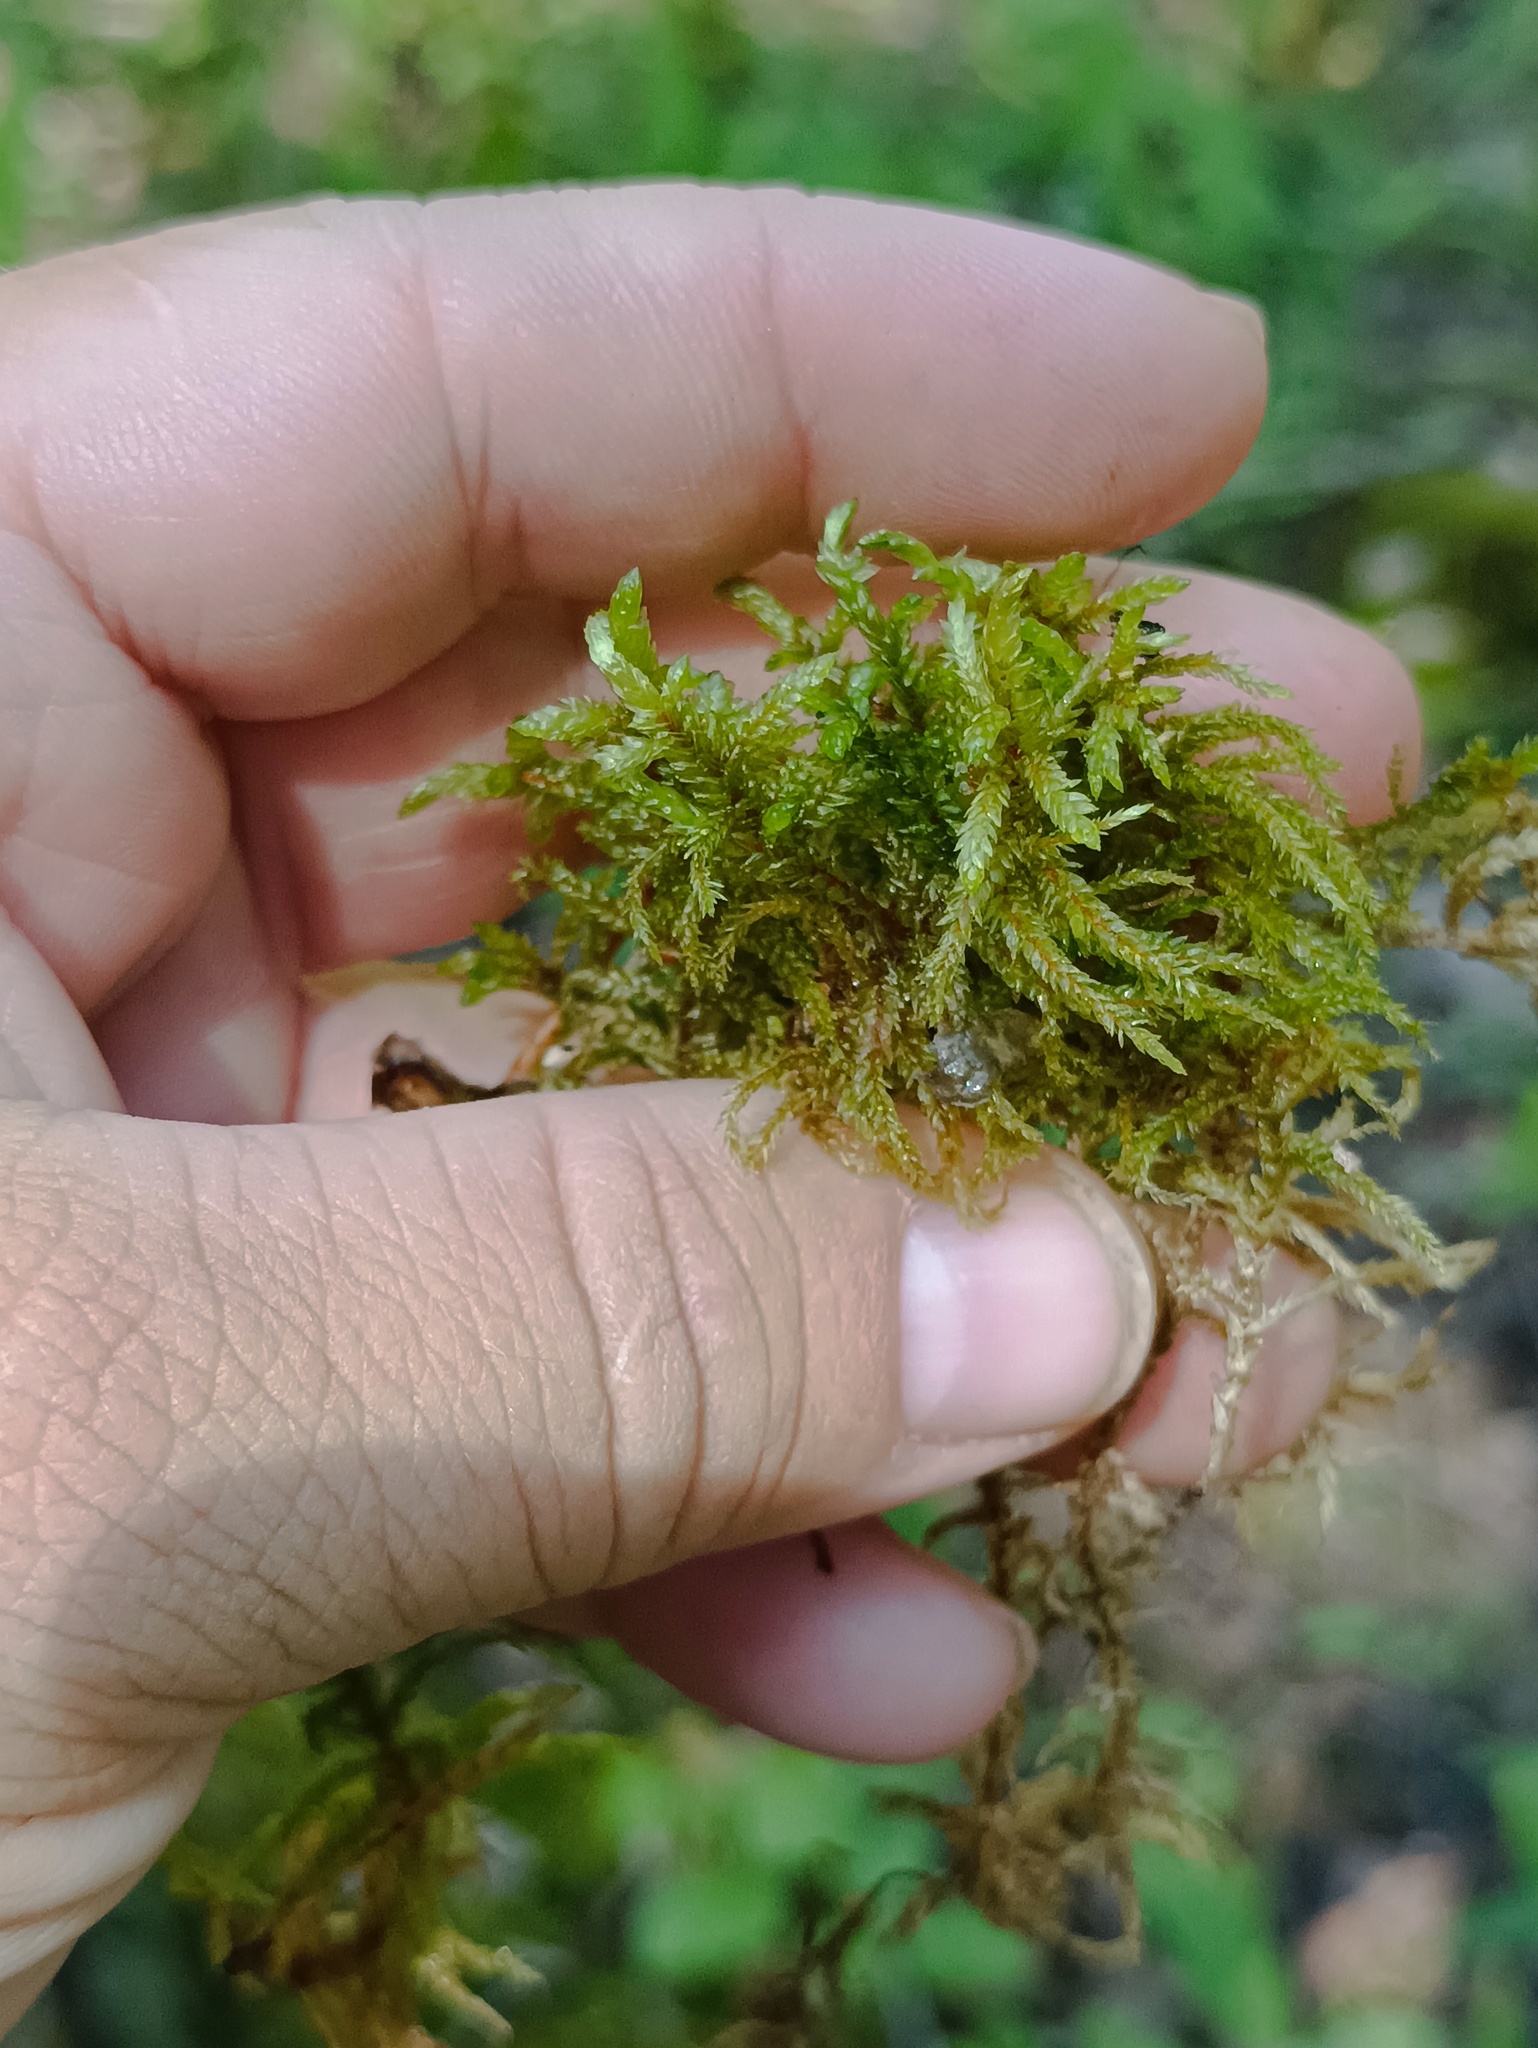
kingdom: Plantae
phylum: Bryophyta
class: Bryopsida
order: Hypnales
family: Hylocomiaceae
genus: Pleurozium
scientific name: Pleurozium schreberi
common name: Red-stemmed feather moss
